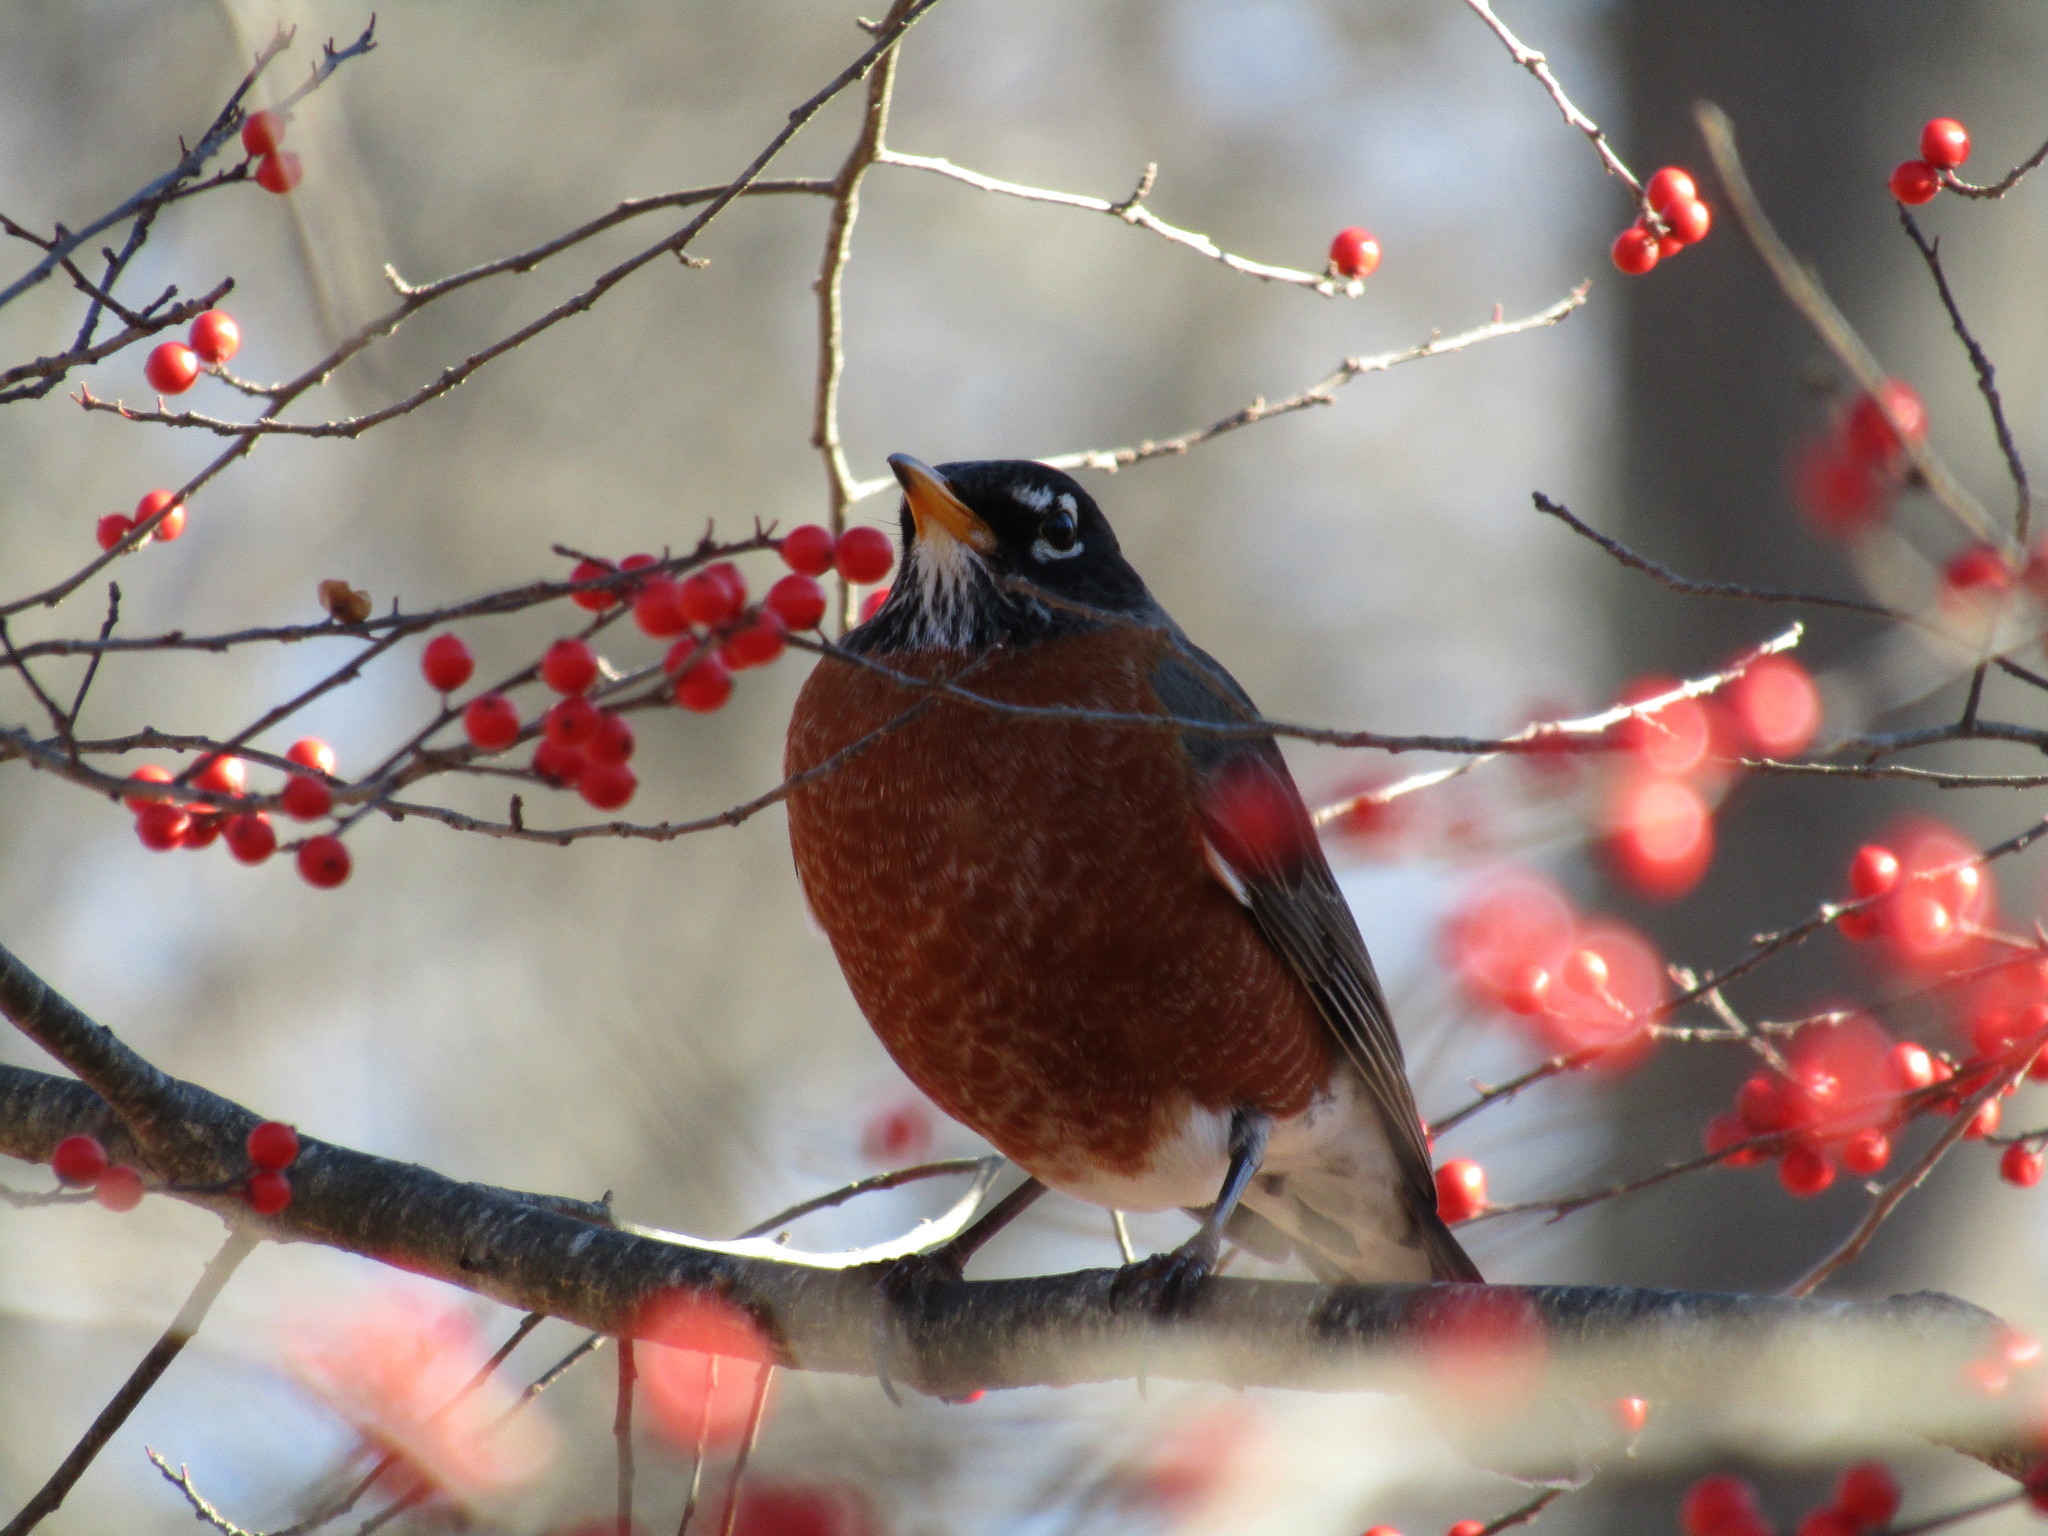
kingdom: Animalia
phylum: Chordata
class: Aves
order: Passeriformes
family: Turdidae
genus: Turdus
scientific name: Turdus migratorius
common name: American robin
